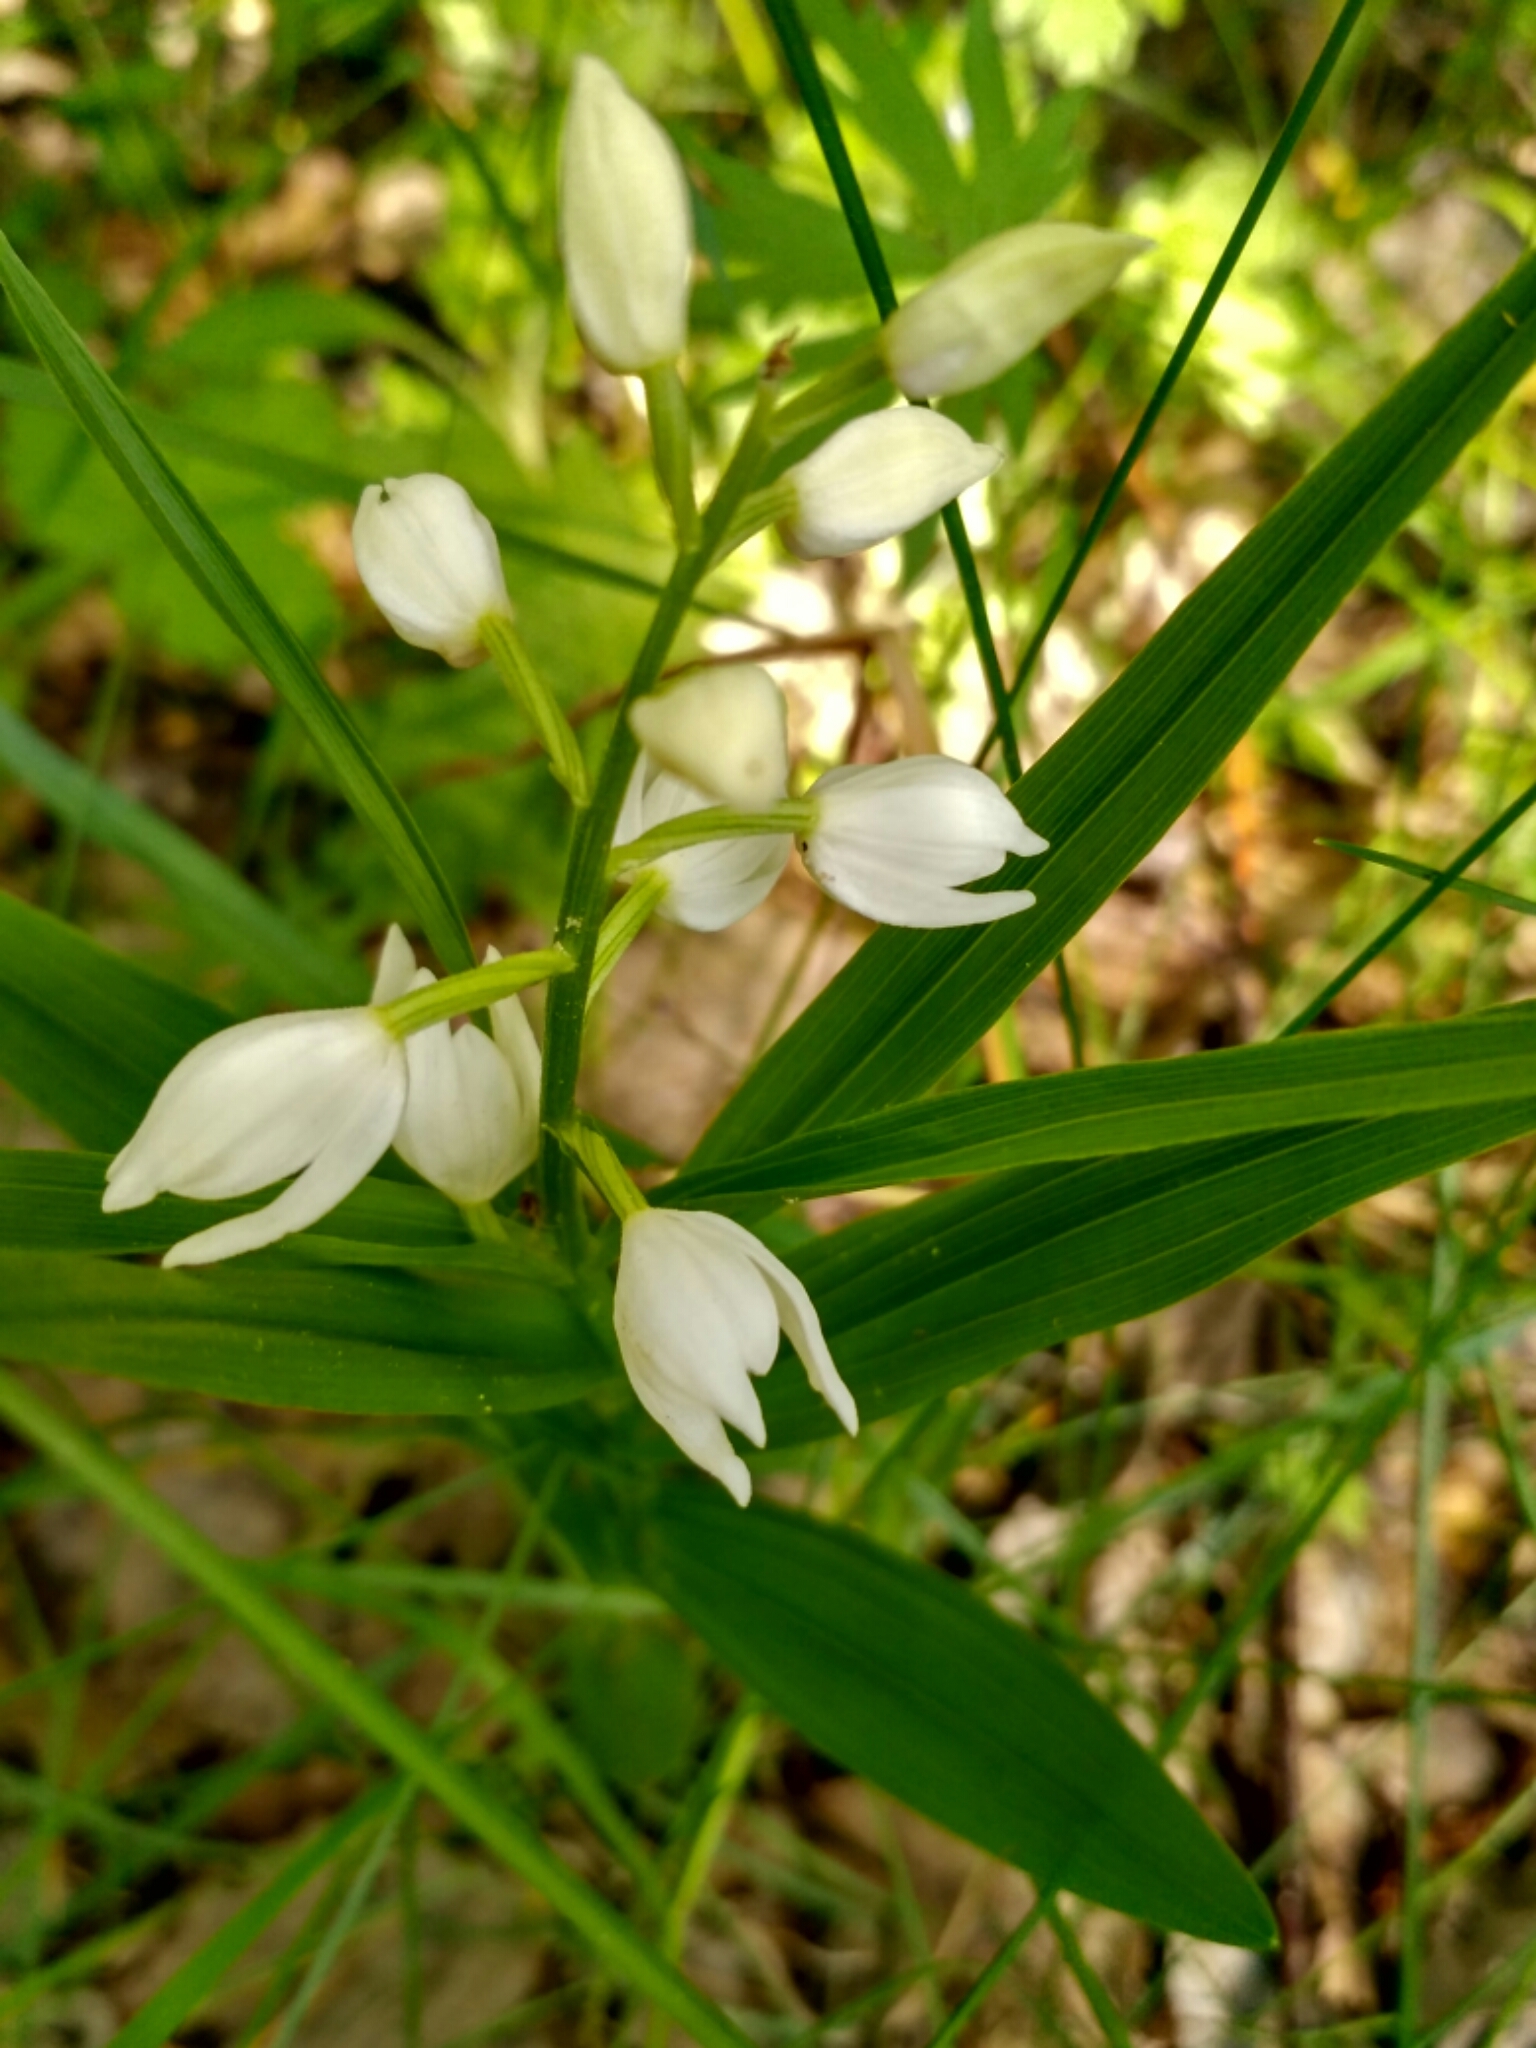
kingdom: Plantae
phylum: Tracheophyta
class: Liliopsida
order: Asparagales
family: Orchidaceae
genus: Cephalanthera
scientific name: Cephalanthera longifolia
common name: Narrow-leaved helleborine
